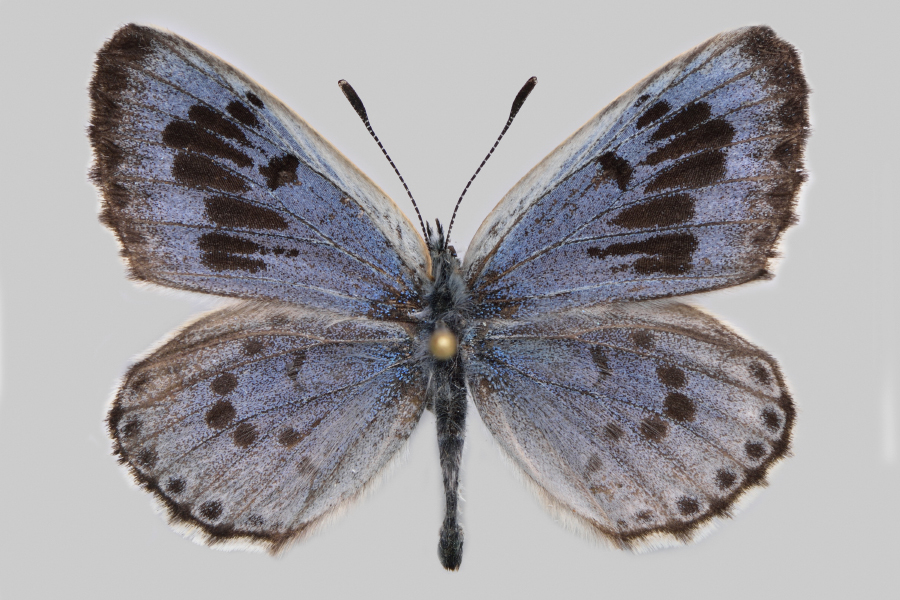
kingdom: Animalia
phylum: Arthropoda
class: Insecta
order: Lepidoptera
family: Lycaenidae
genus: Phengaris
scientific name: Phengaris
